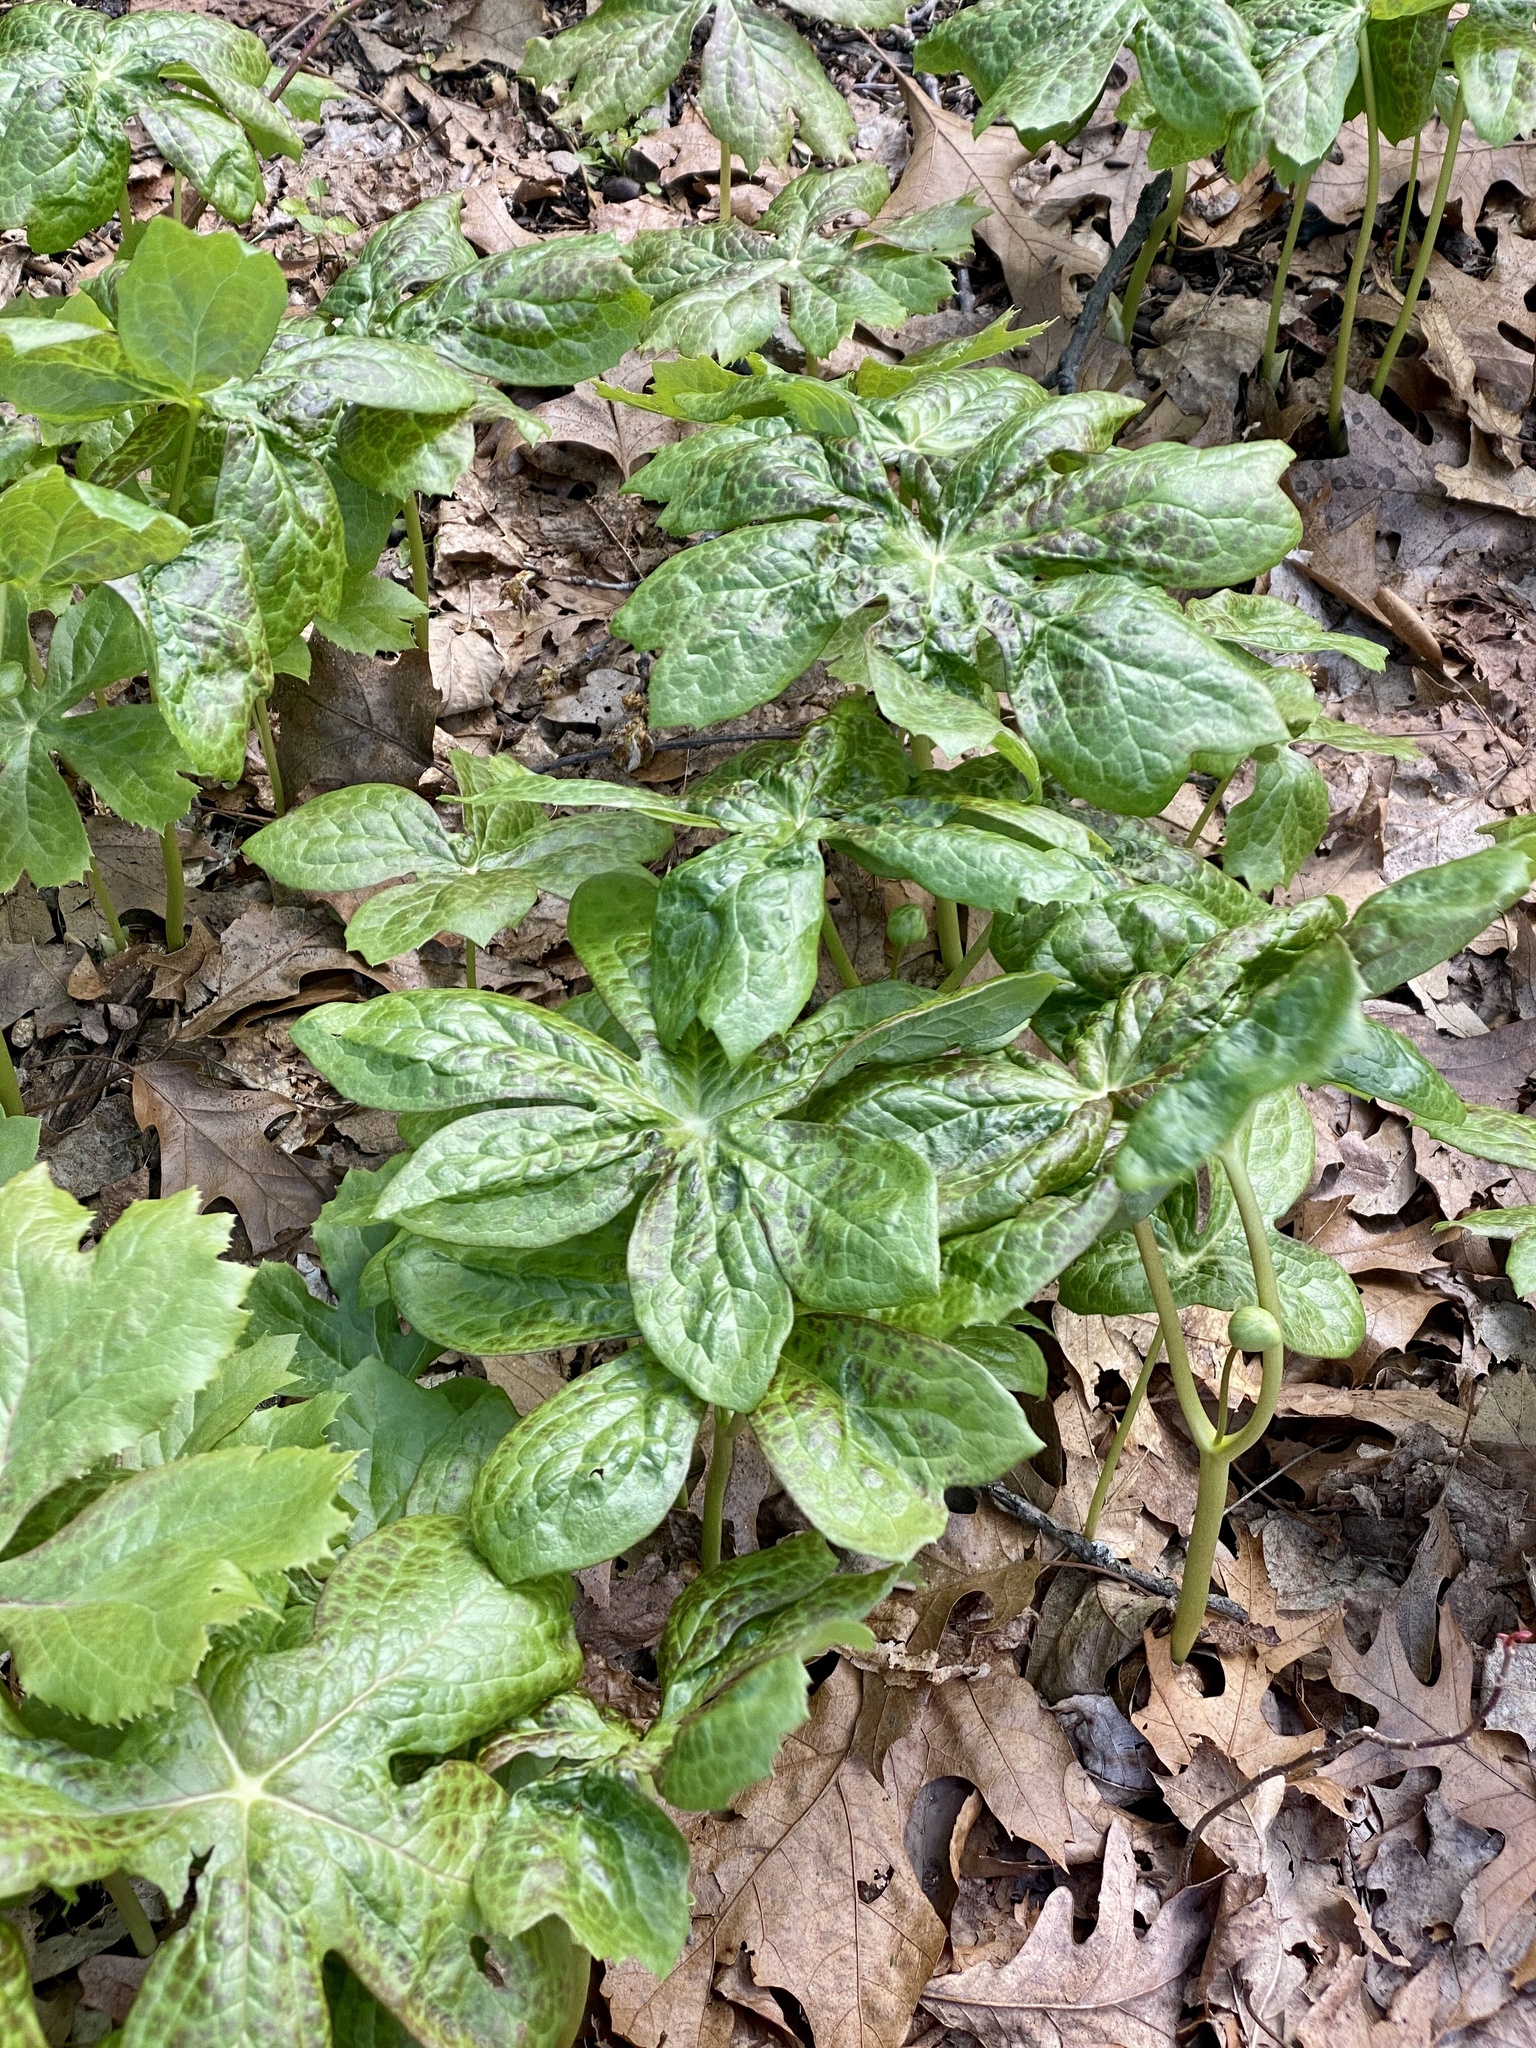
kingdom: Plantae
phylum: Tracheophyta
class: Magnoliopsida
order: Ranunculales
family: Berberidaceae
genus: Podophyllum
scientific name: Podophyllum peltatum
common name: Wild mandrake
